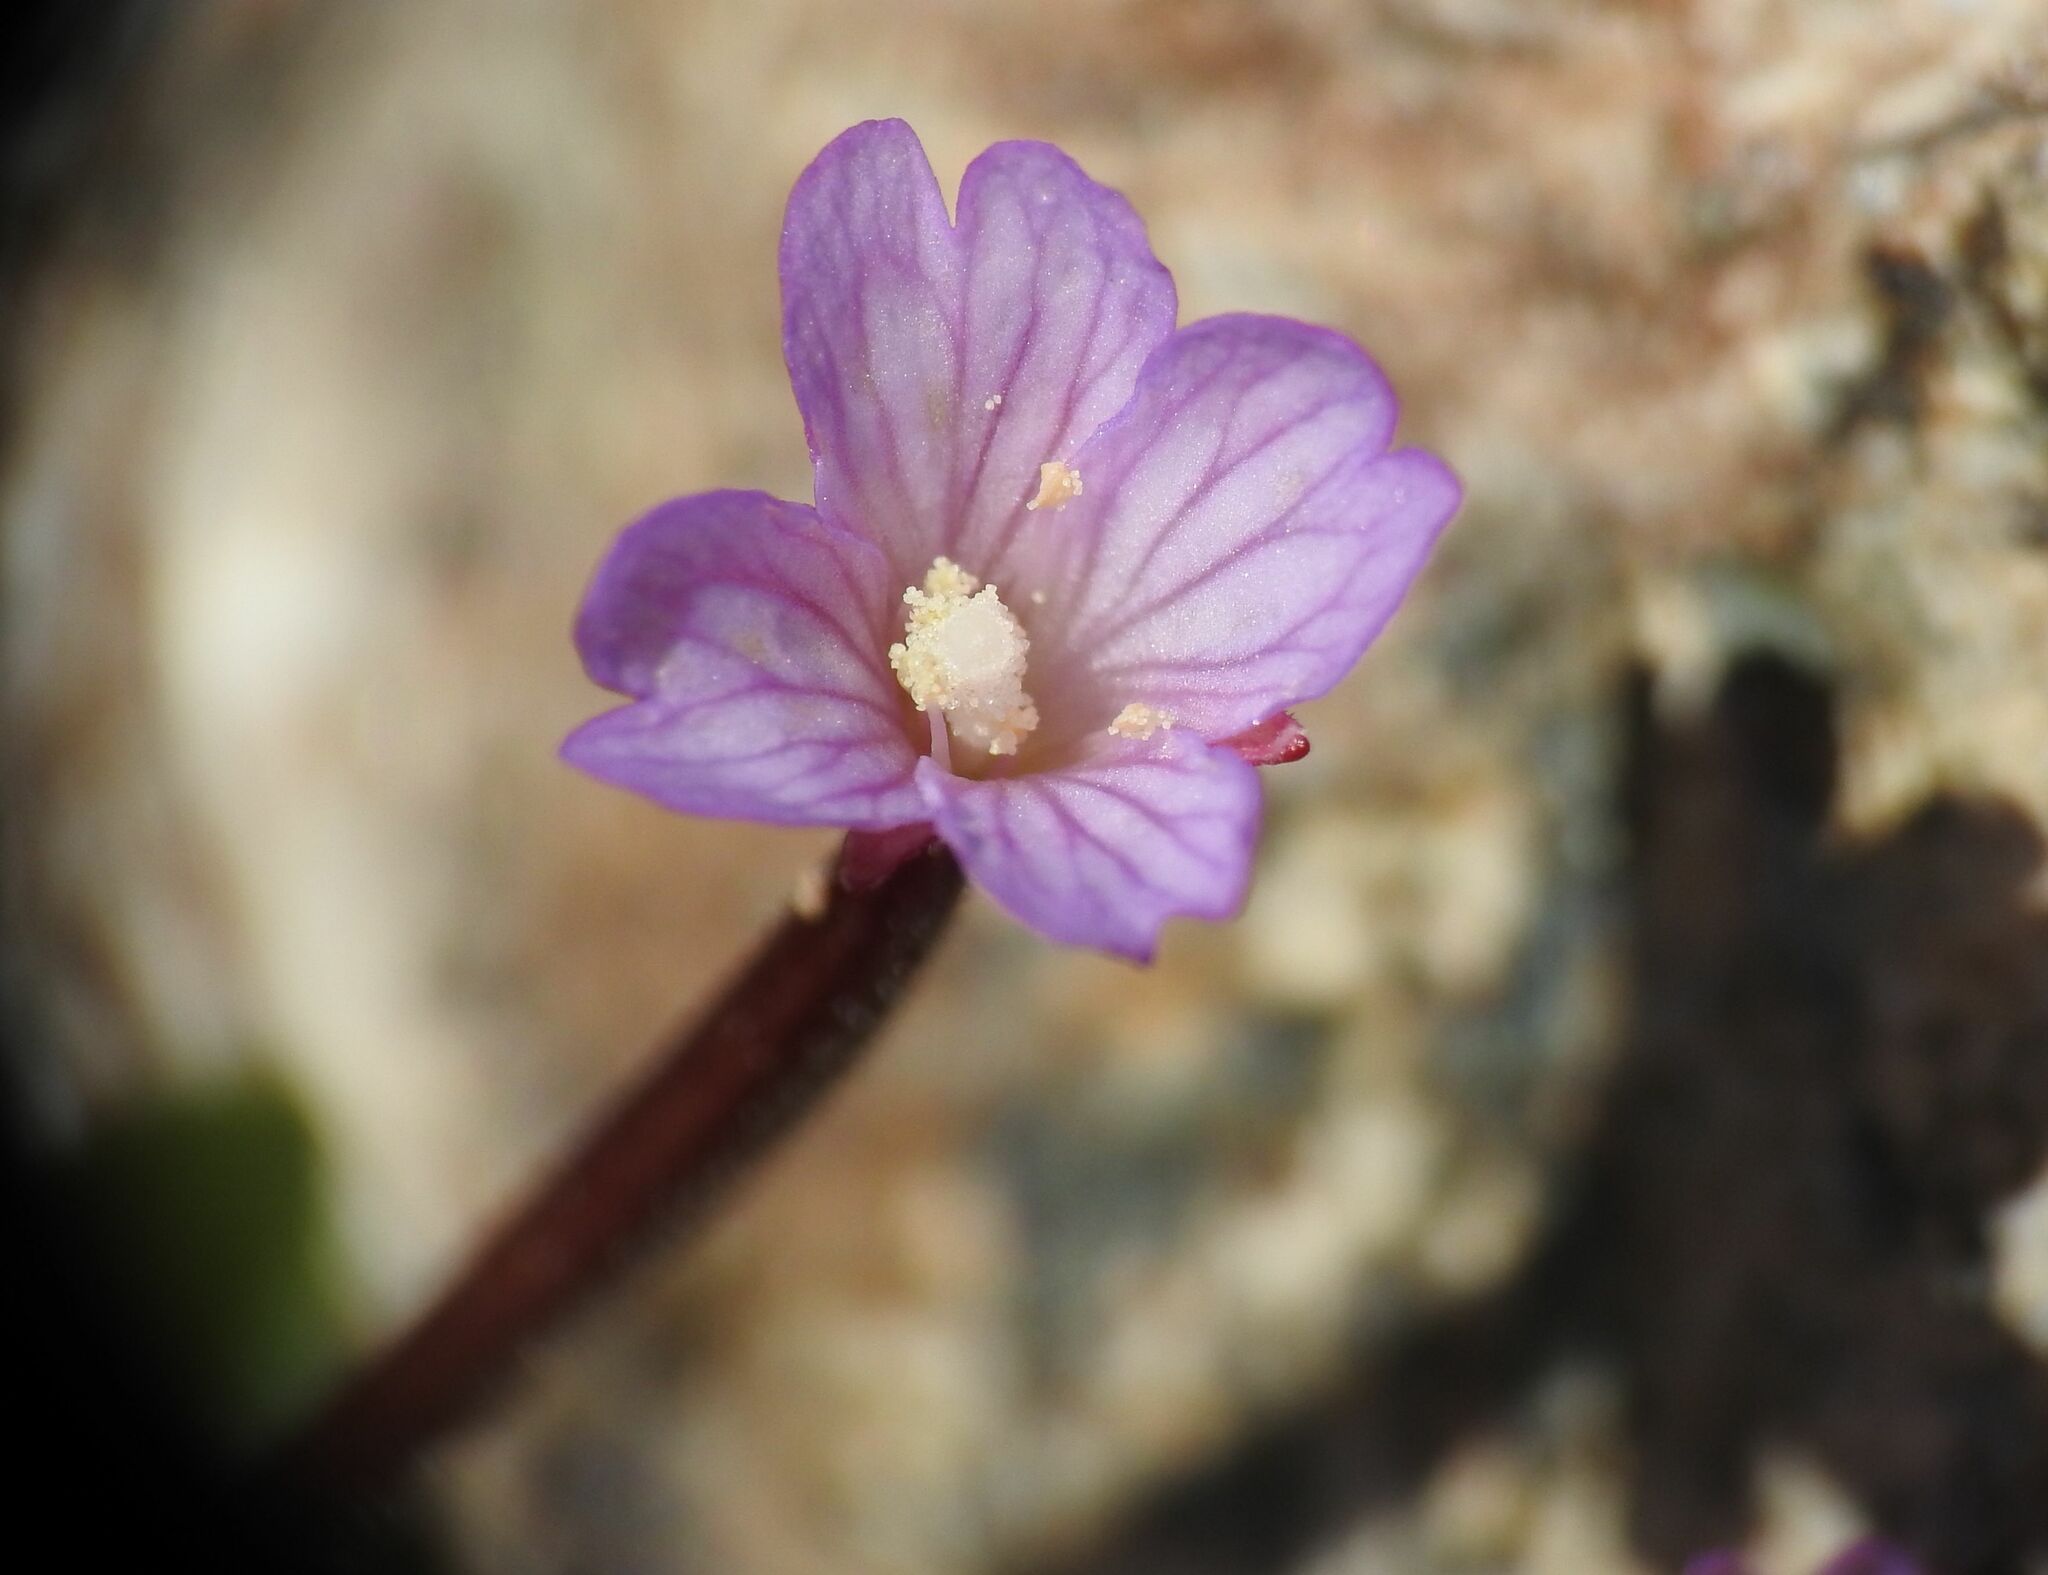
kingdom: Plantae
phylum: Tracheophyta
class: Magnoliopsida
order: Myrtales
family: Onagraceae
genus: Epilobium
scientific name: Epilobium anagallidifolium
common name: Alpine willowherb
